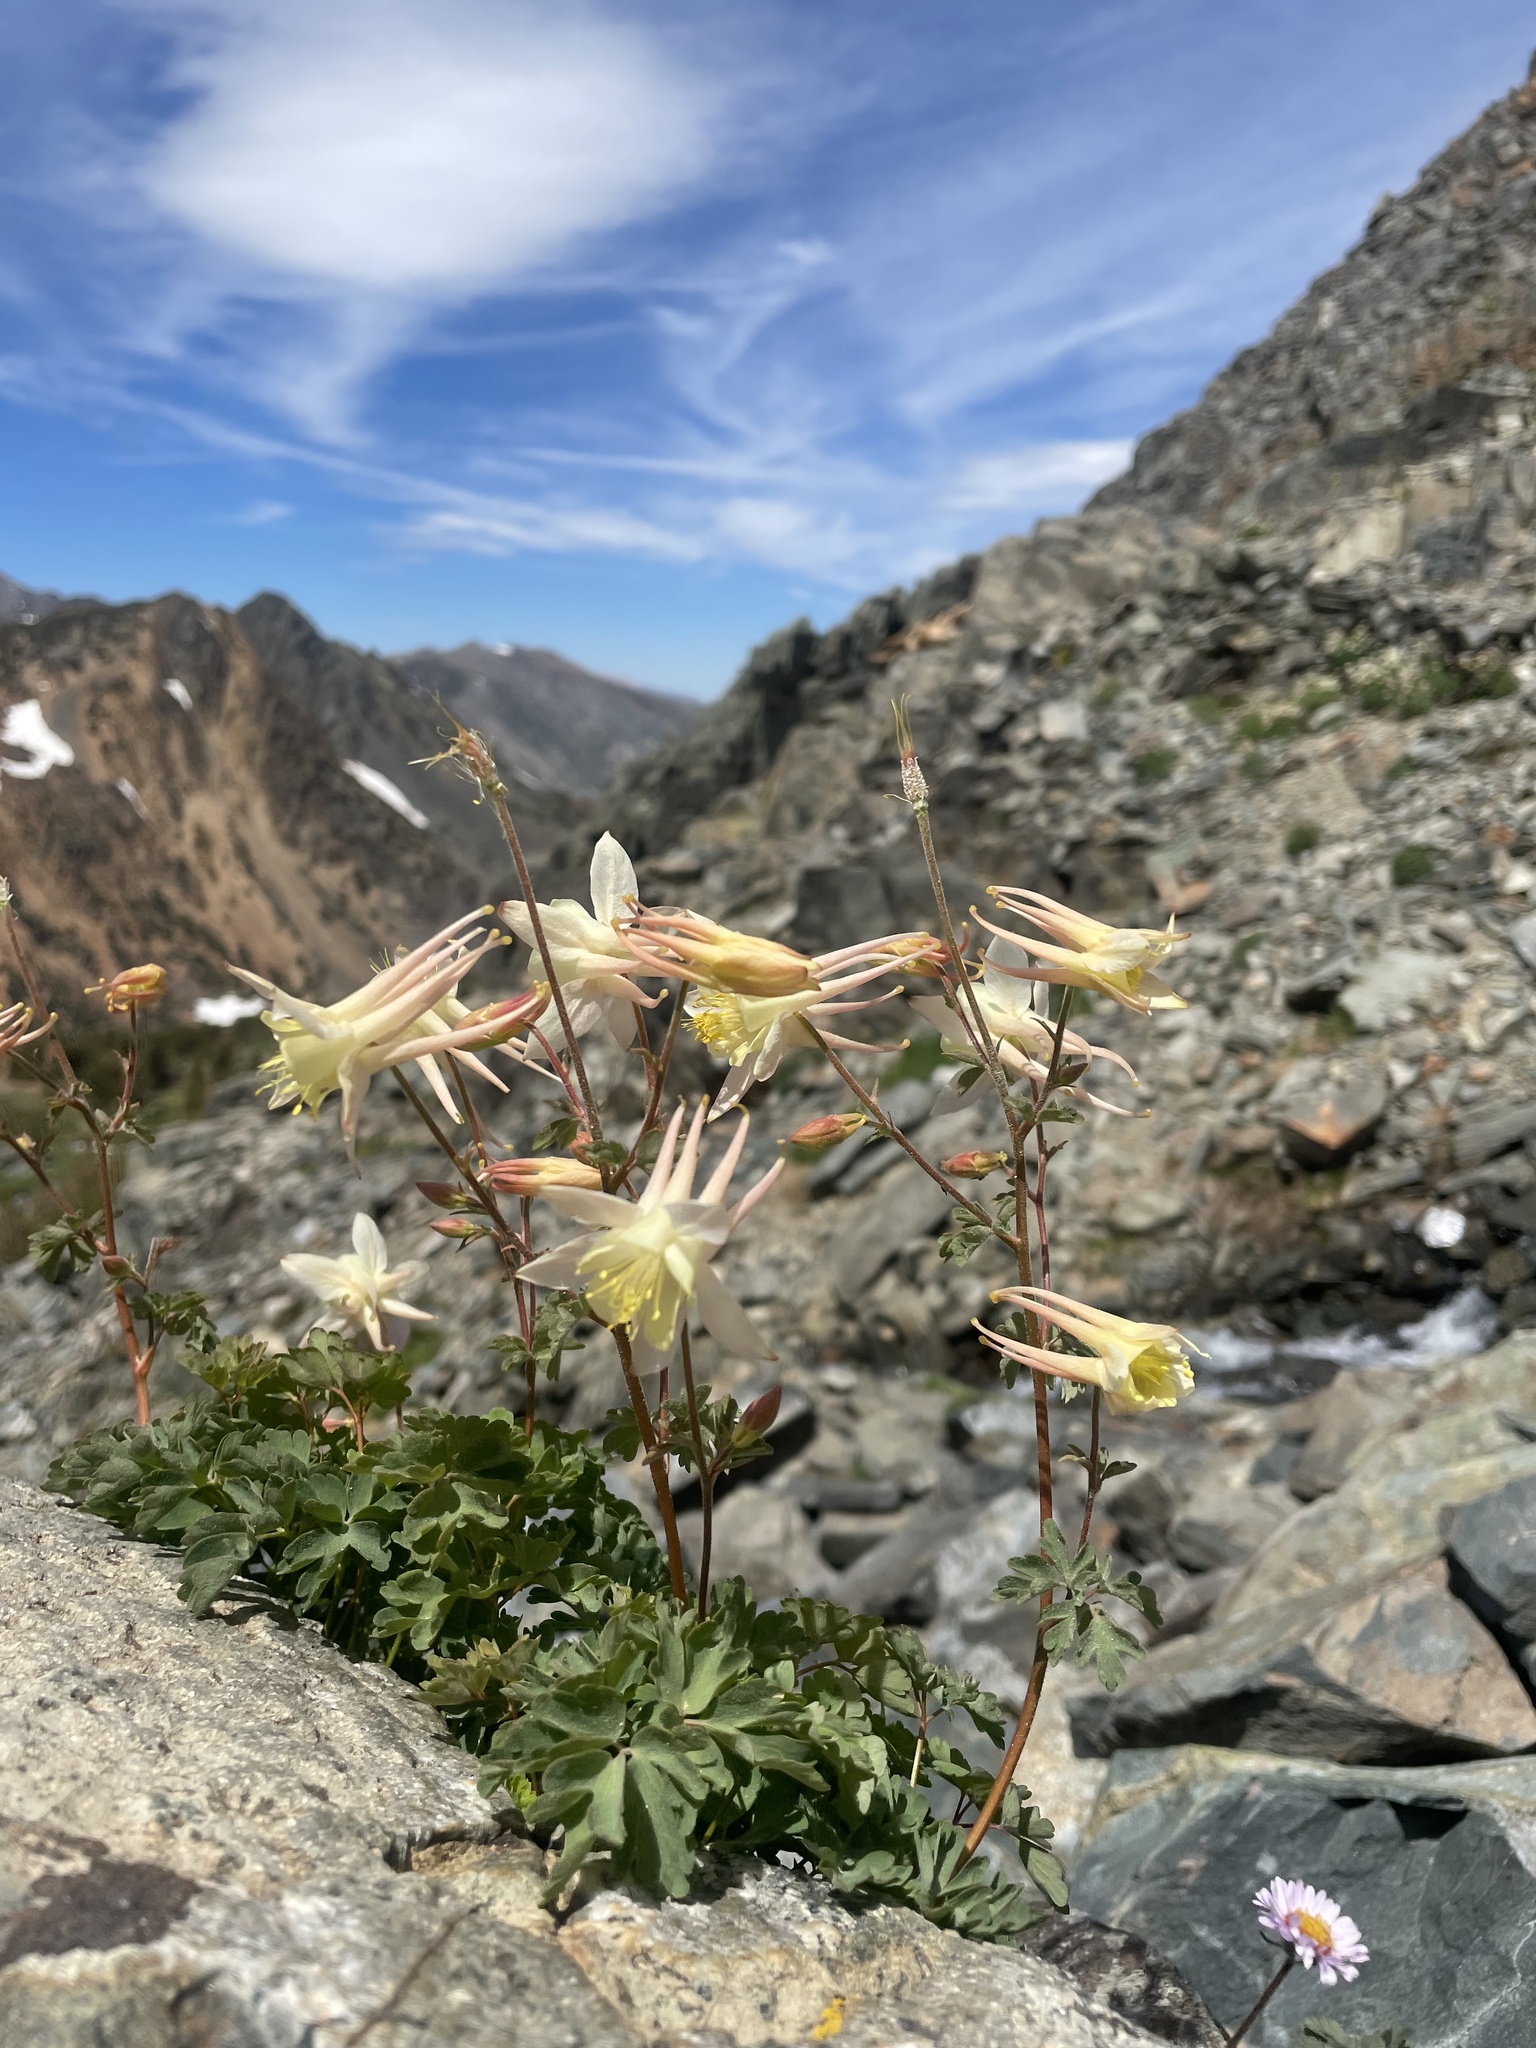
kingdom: Plantae
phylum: Tracheophyta
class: Magnoliopsida
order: Ranunculales
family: Ranunculaceae
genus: Aquilegia
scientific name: Aquilegia pubescens
